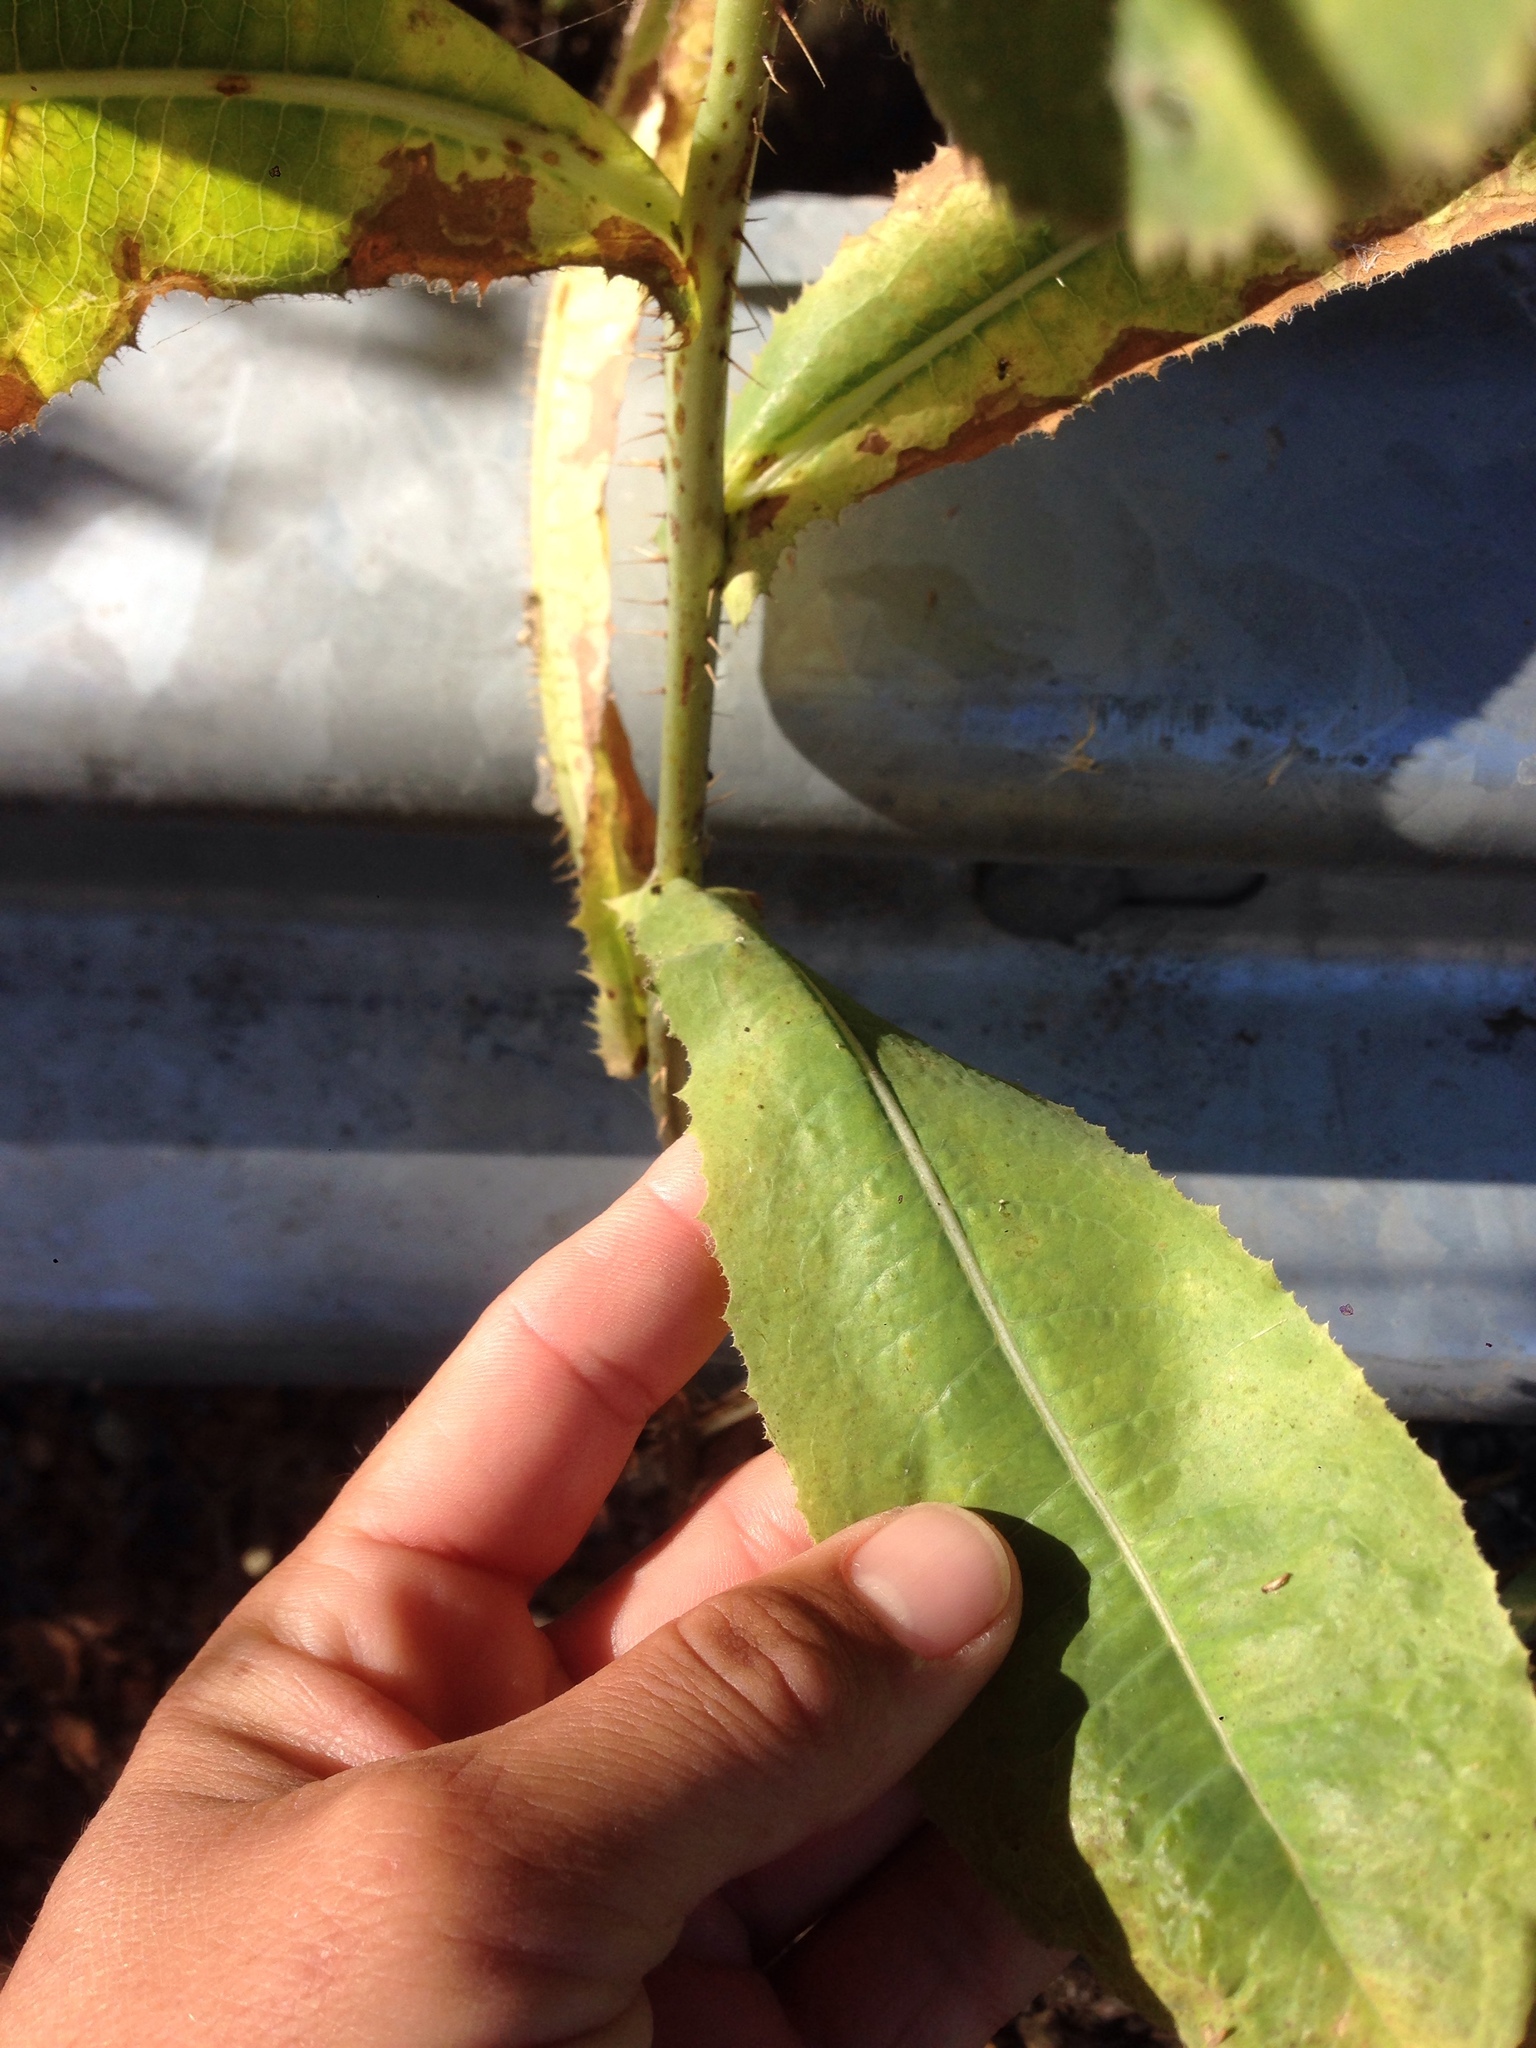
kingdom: Plantae
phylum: Tracheophyta
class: Magnoliopsida
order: Asterales
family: Asteraceae
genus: Lactuca
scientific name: Lactuca serriola
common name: Prickly lettuce
